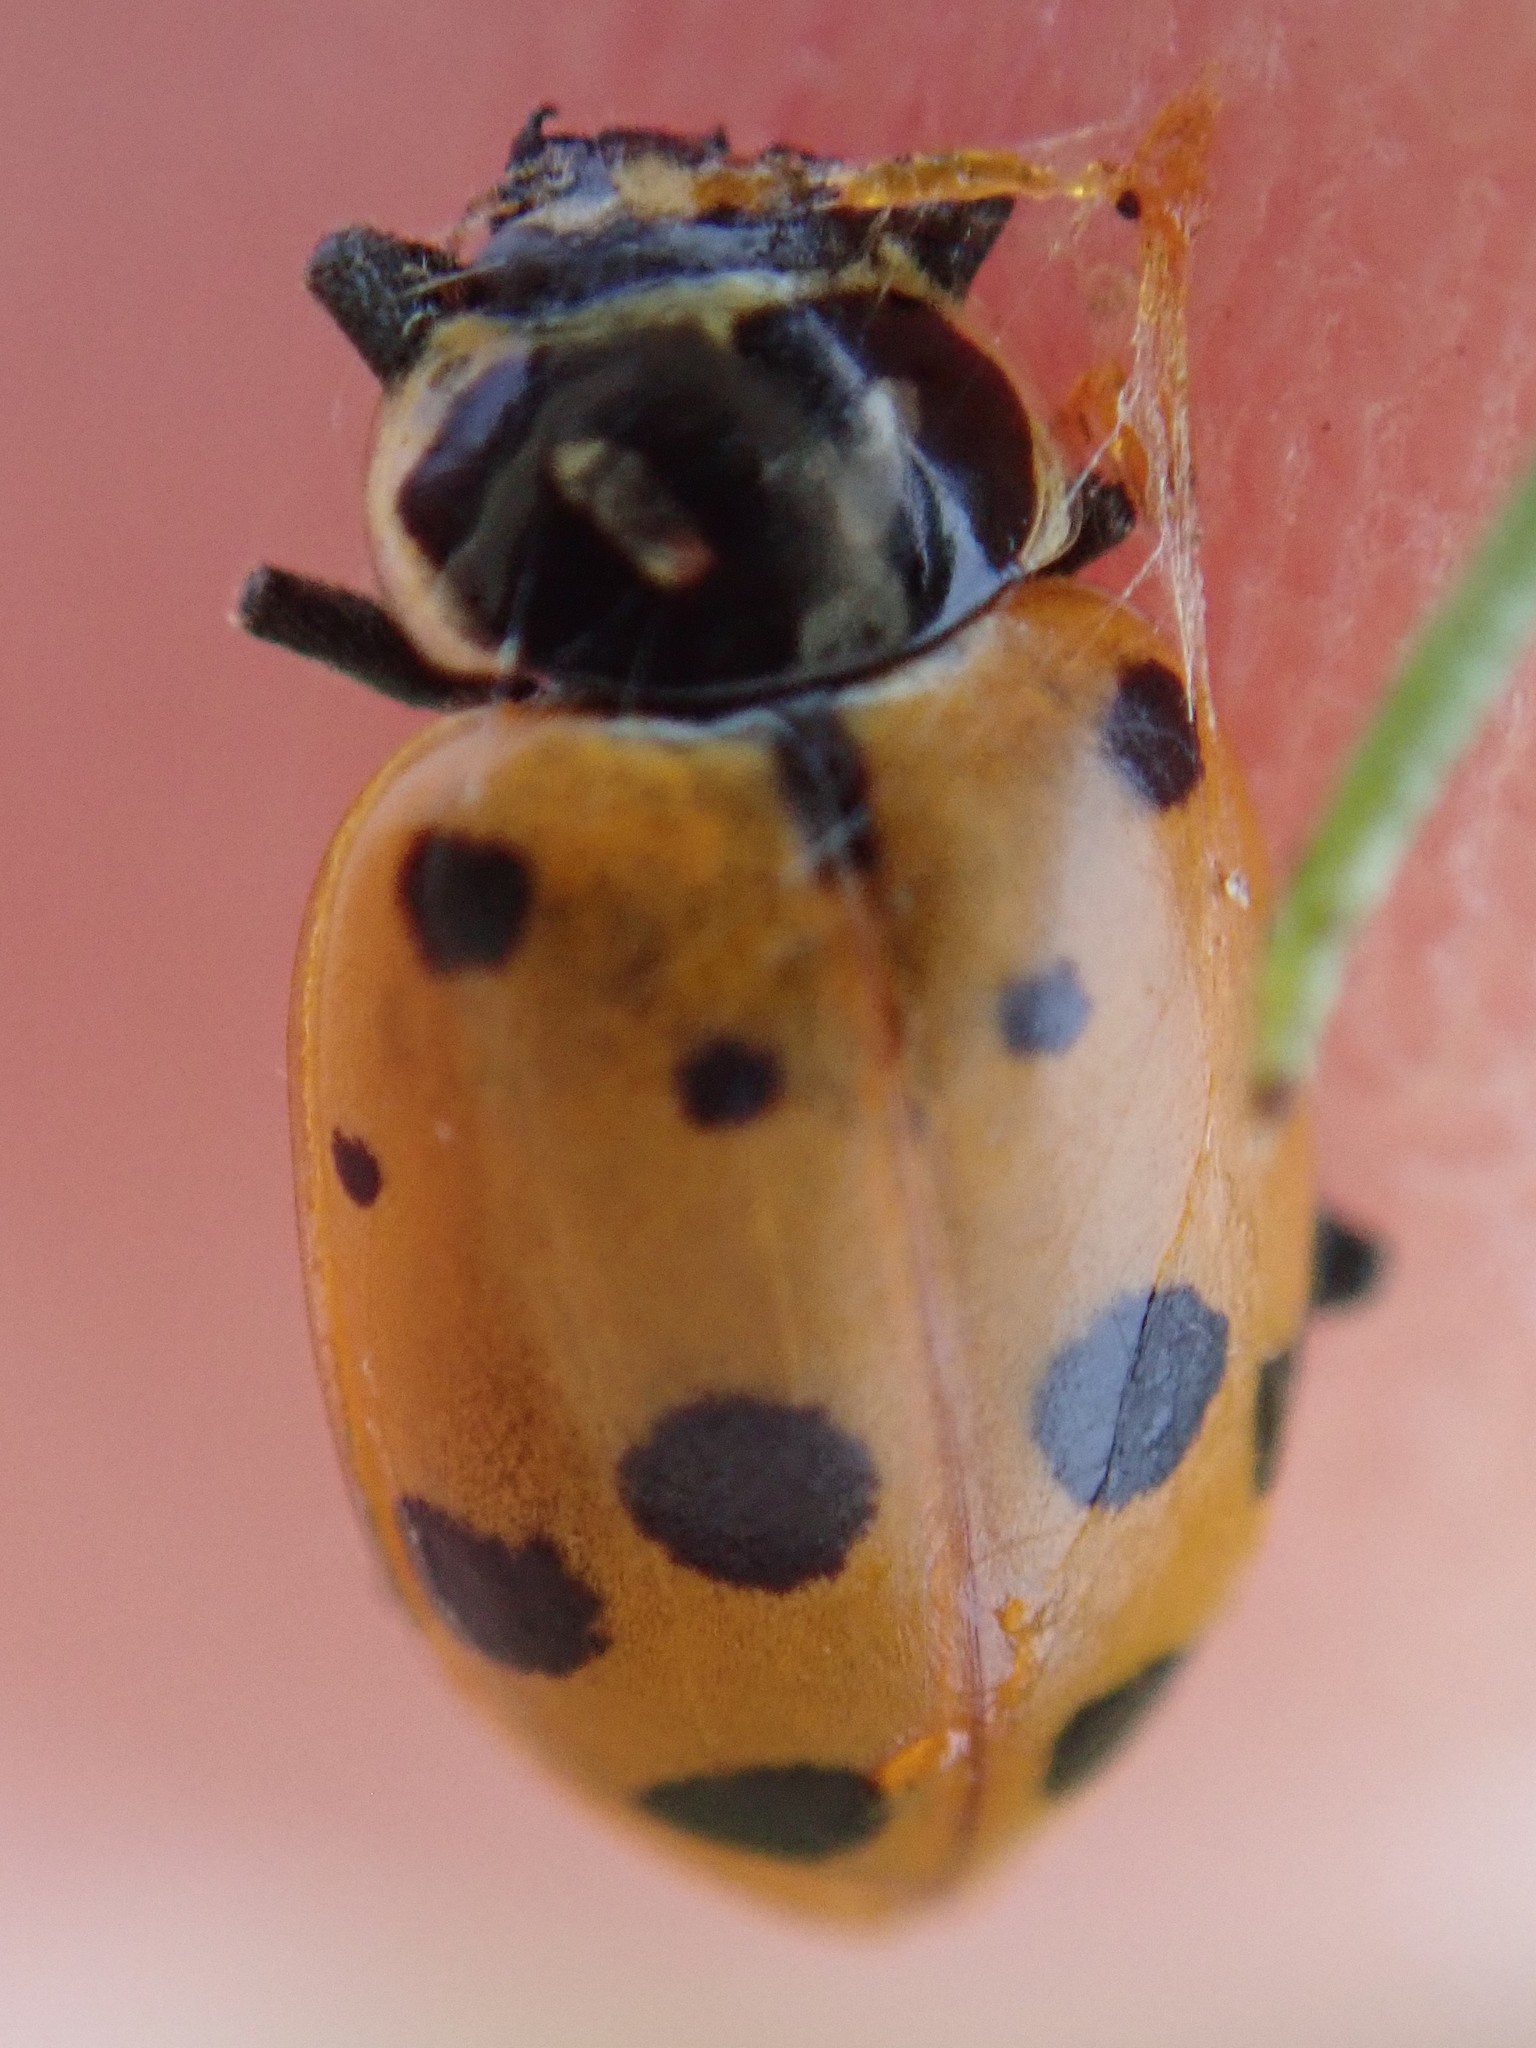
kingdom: Animalia
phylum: Arthropoda
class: Insecta
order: Coleoptera
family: Coccinellidae
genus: Hippodamia
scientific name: Hippodamia convergens
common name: Convergent lady beetle
